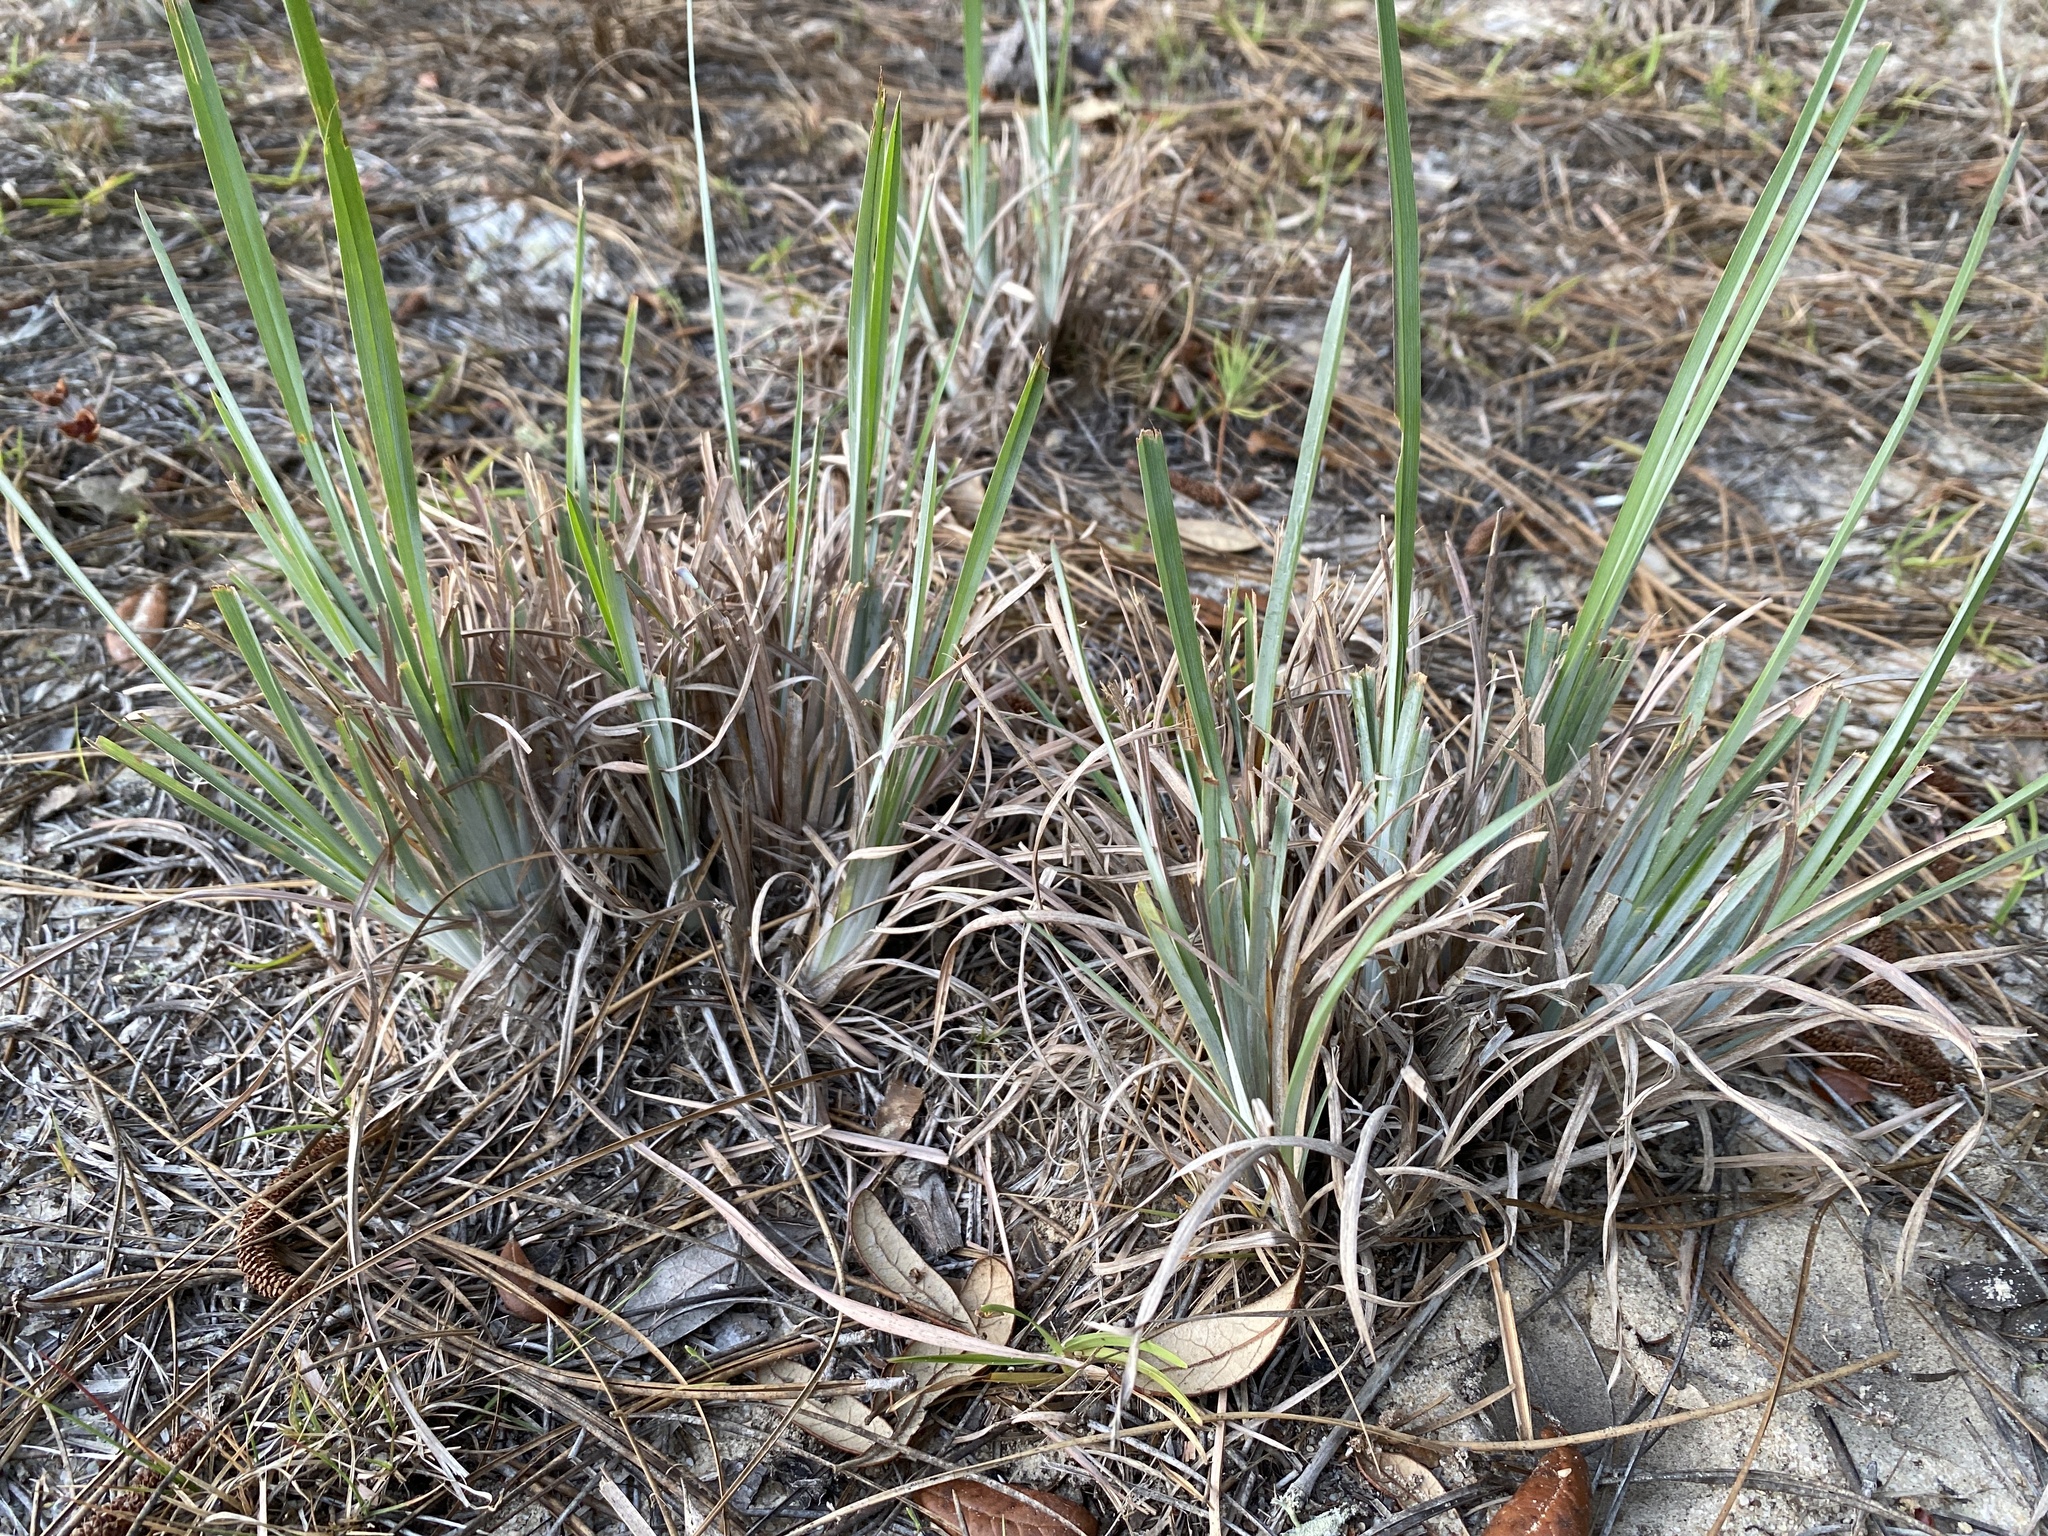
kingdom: Plantae
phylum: Tracheophyta
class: Liliopsida
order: Poales
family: Poaceae
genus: Andropogon
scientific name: Andropogon capillipes
